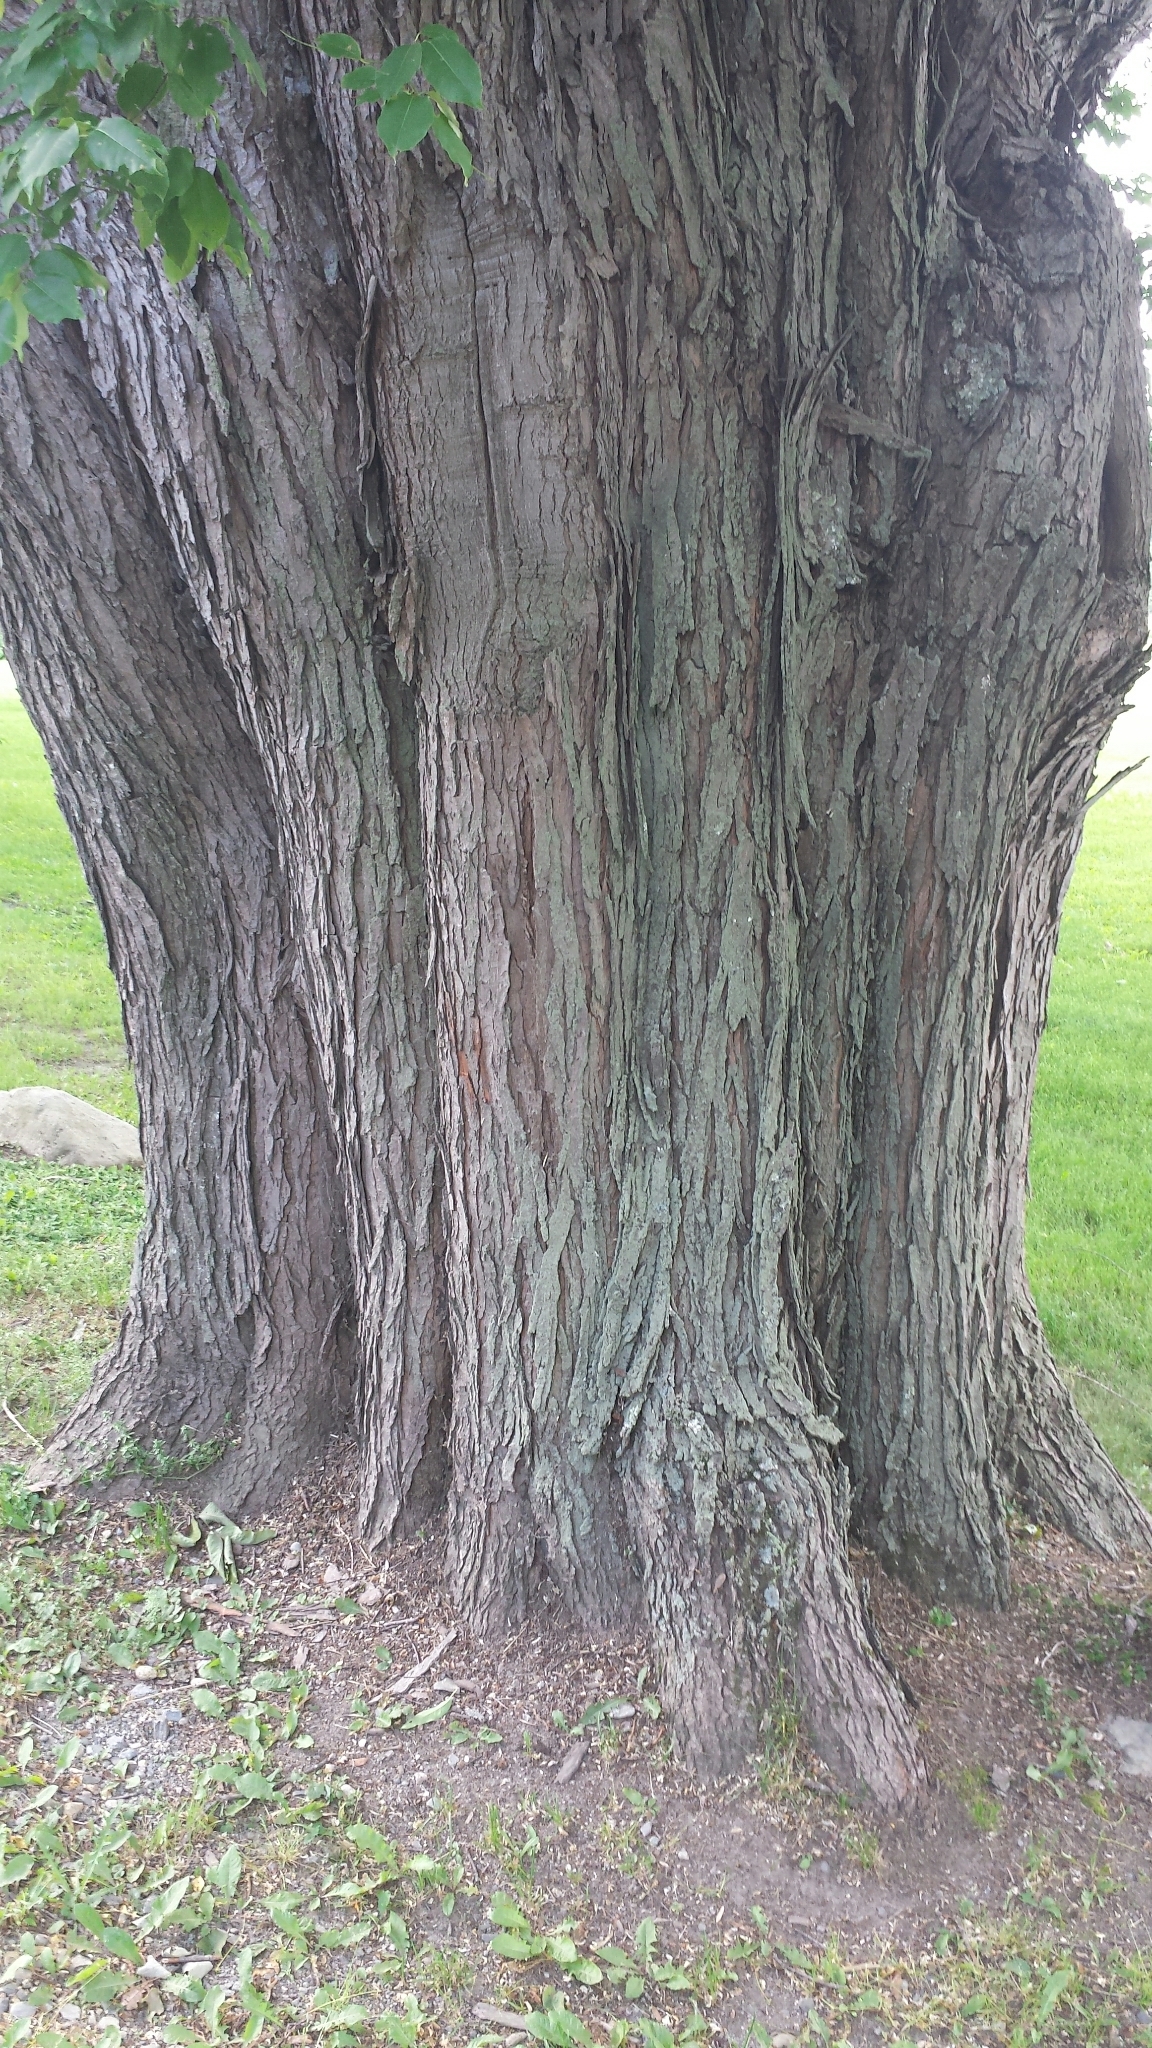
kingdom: Plantae
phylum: Tracheophyta
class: Magnoliopsida
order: Sapindales
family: Sapindaceae
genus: Acer
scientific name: Acer saccharinum
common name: Silver maple
